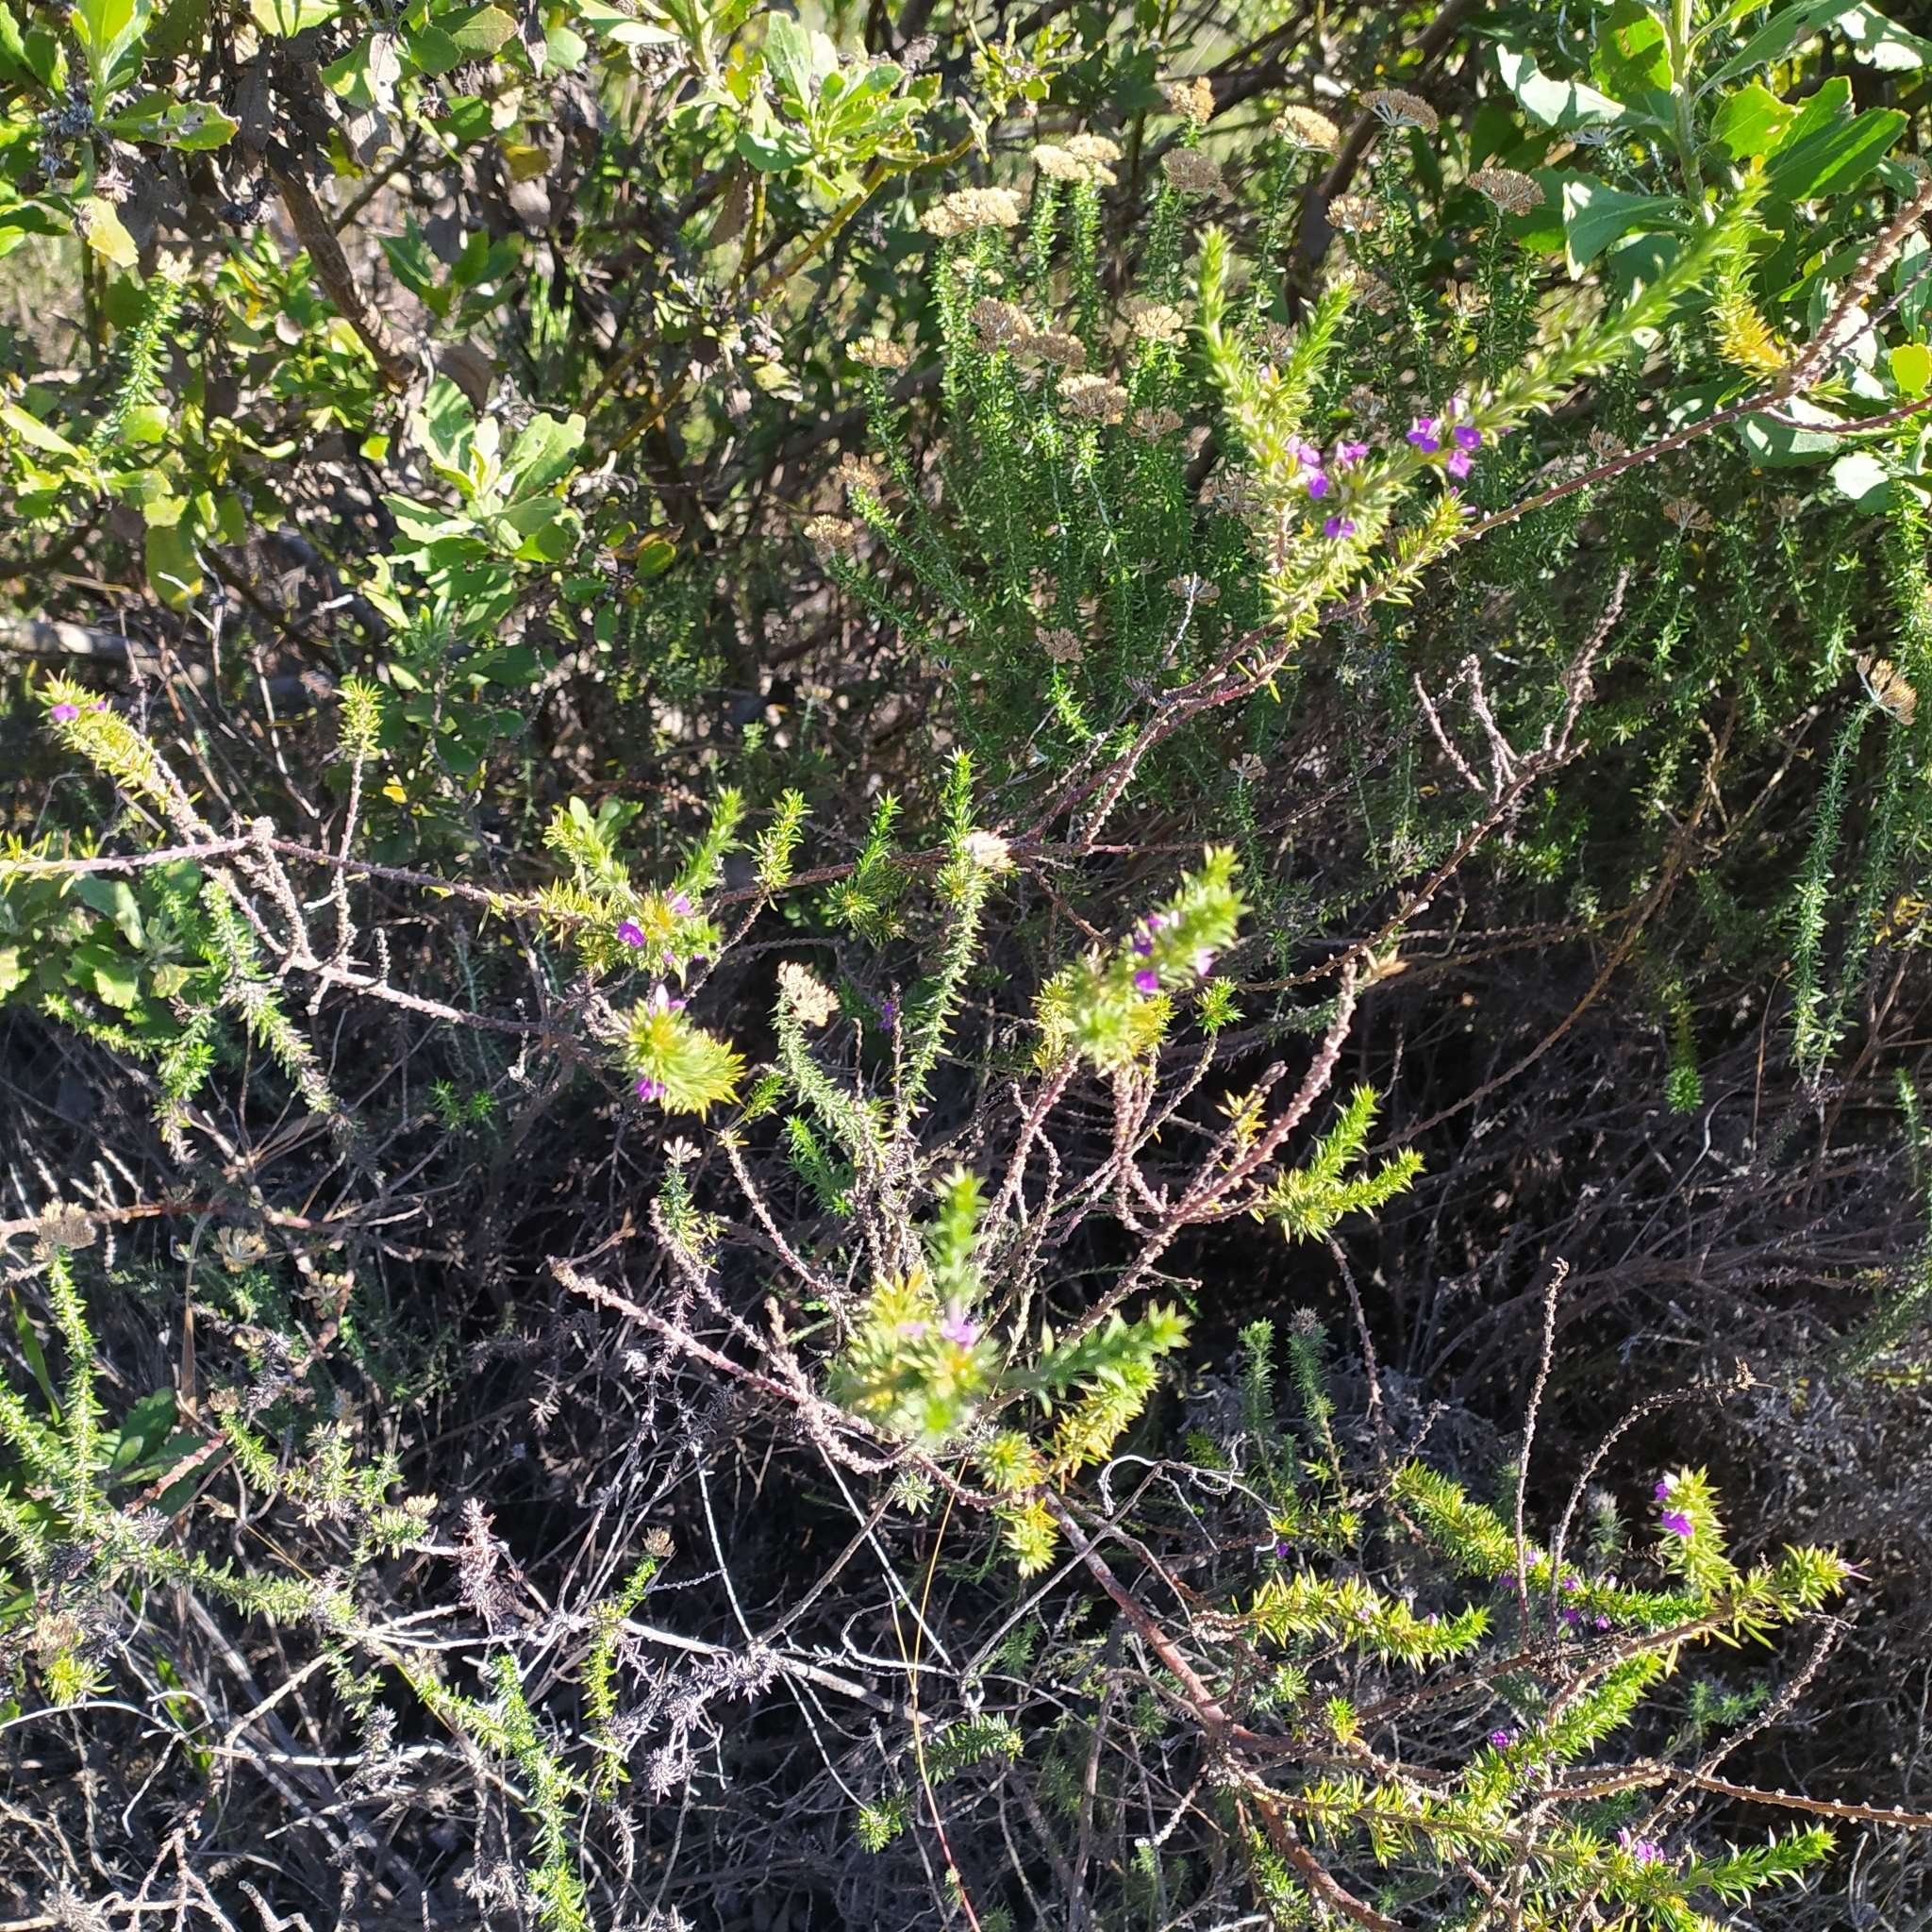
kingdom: Plantae
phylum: Tracheophyta
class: Magnoliopsida
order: Fabales
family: Polygalaceae
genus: Muraltia
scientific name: Muraltia heisteria
